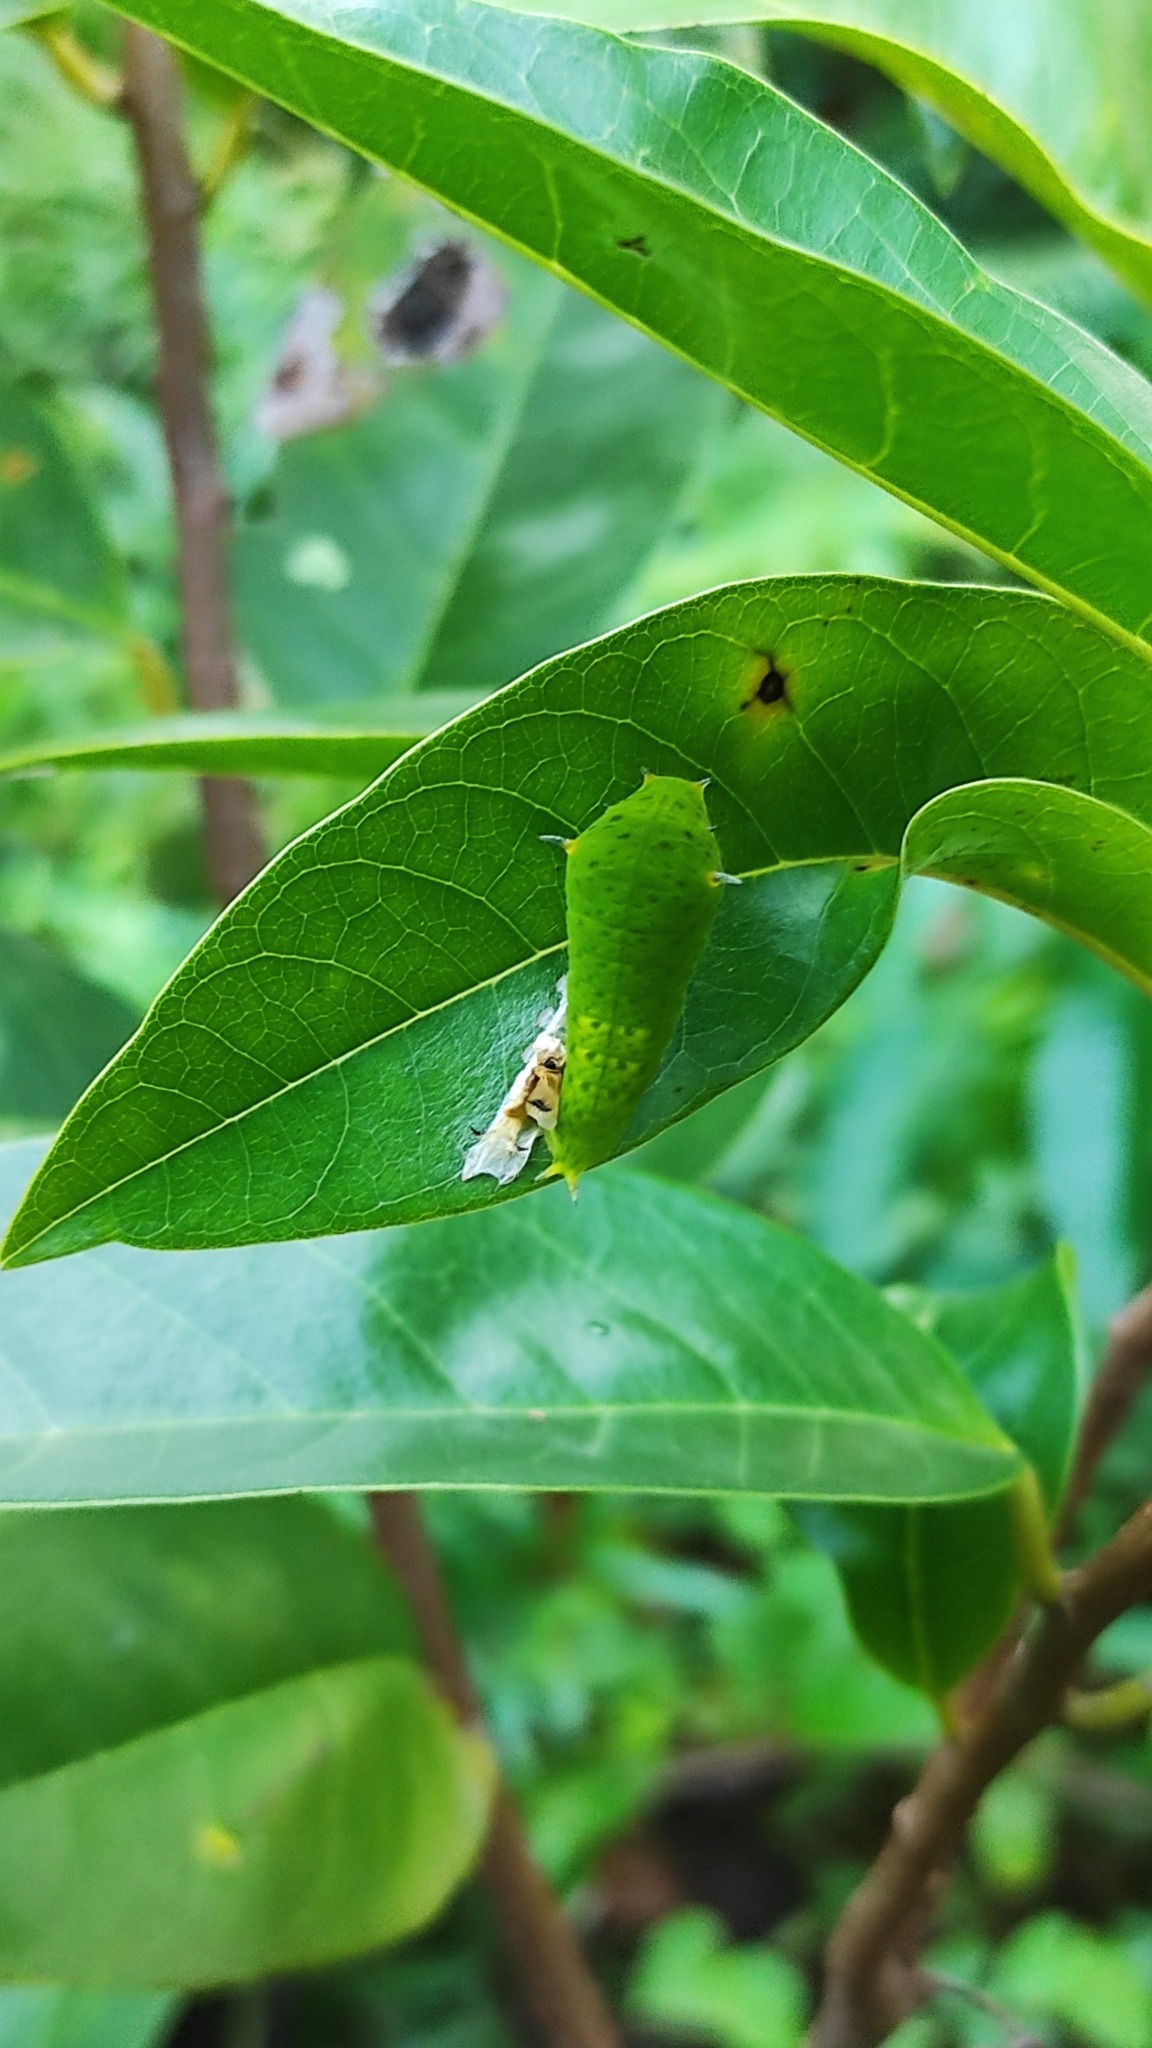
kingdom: Animalia
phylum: Arthropoda
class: Insecta
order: Lepidoptera
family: Papilionidae
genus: Graphium
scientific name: Graphium agamemnon
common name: Tailed jay
